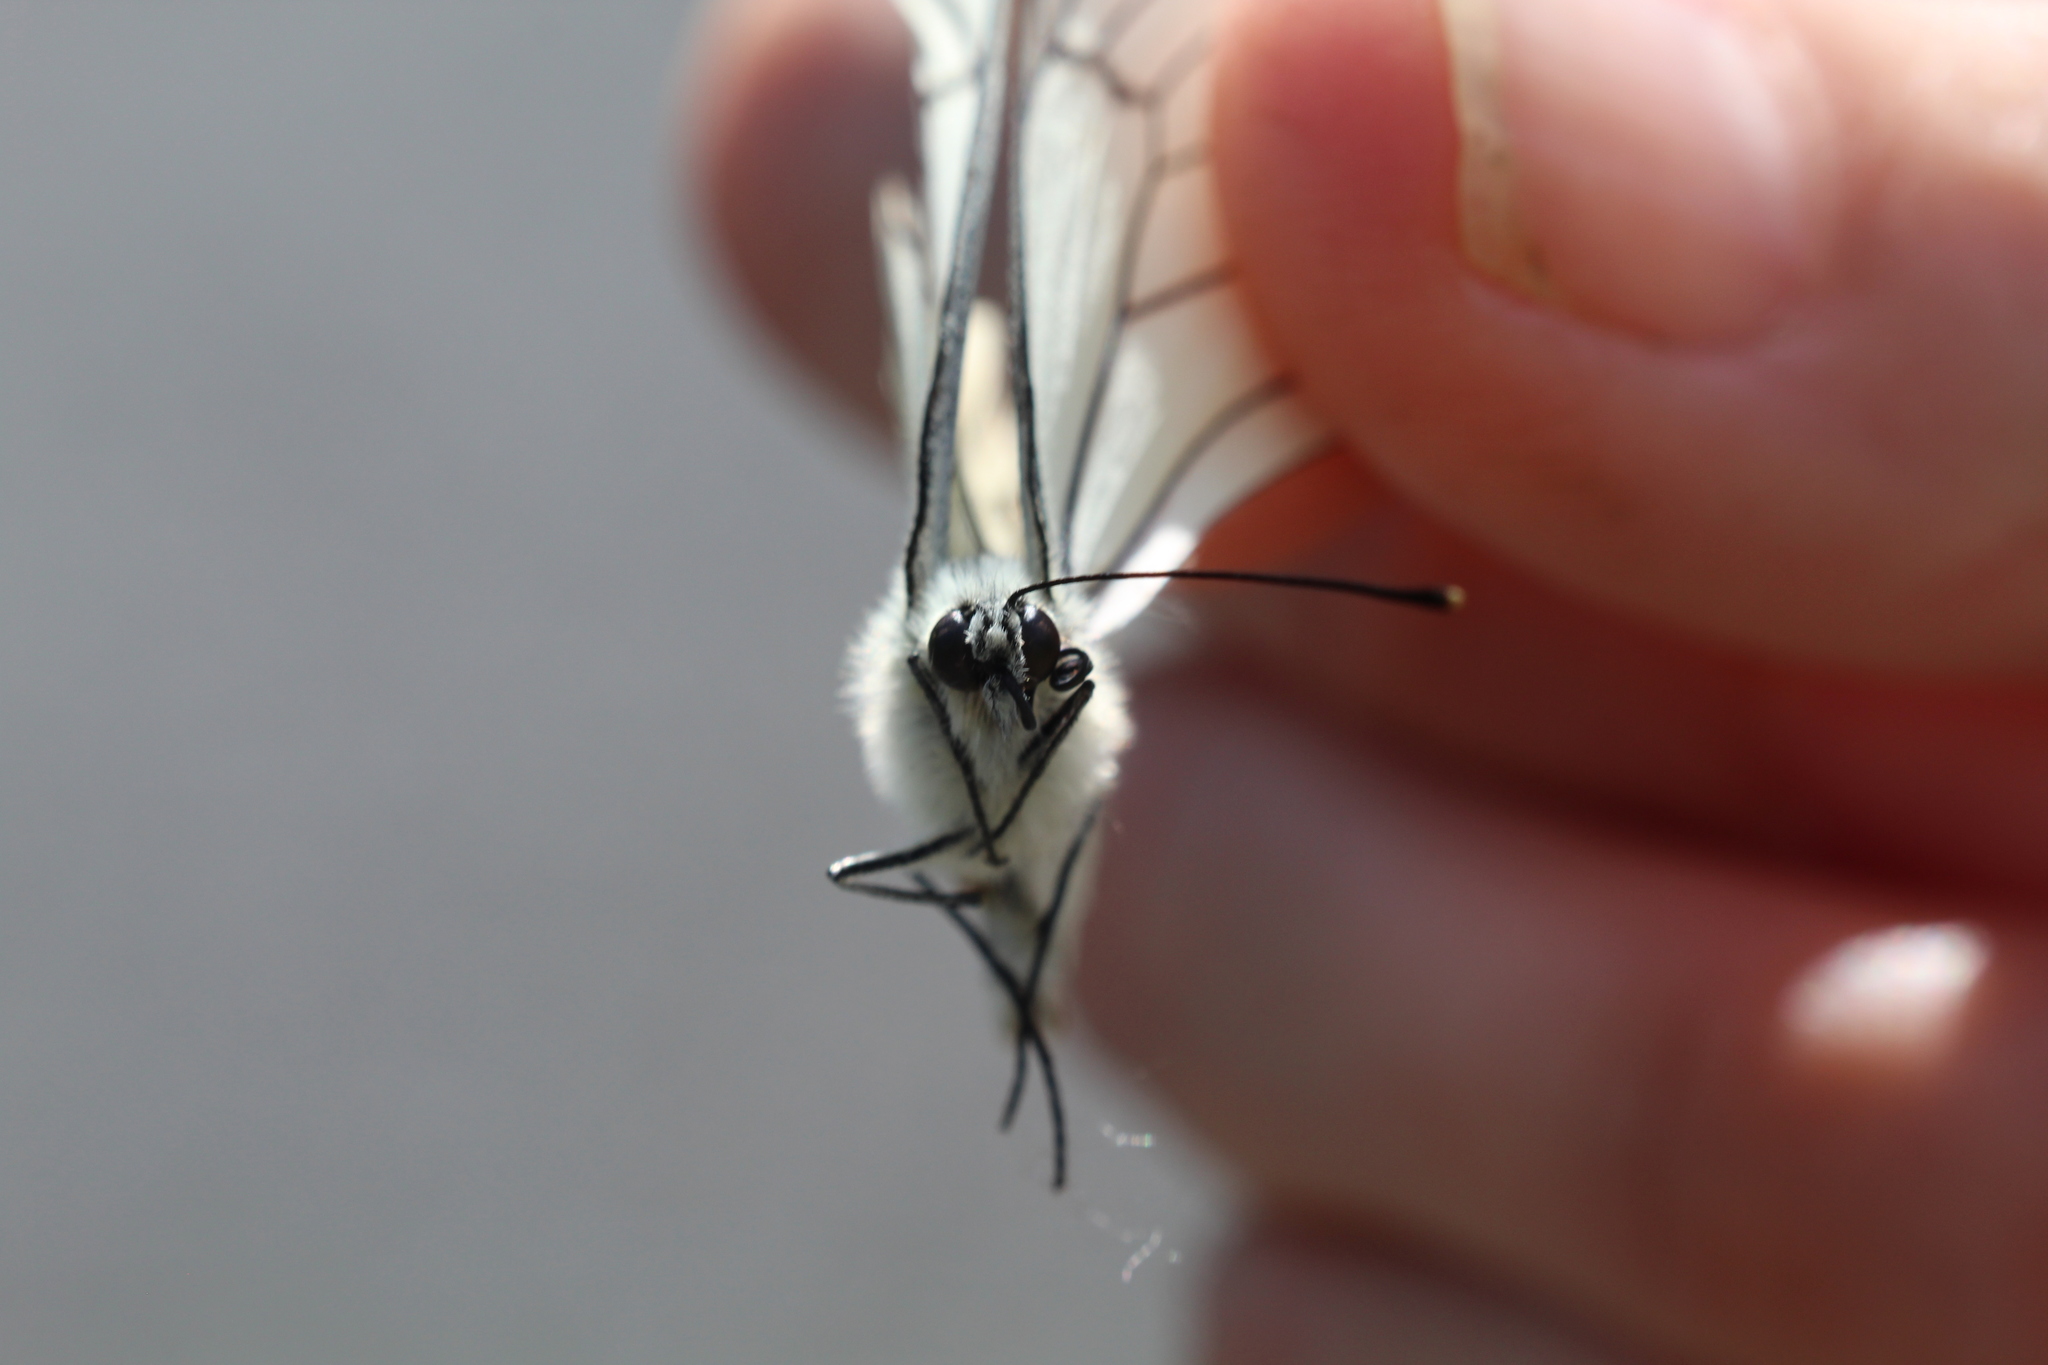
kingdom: Animalia
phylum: Arthropoda
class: Insecta
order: Lepidoptera
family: Pieridae
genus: Aporia
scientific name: Aporia crataegi
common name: Black-veined white
